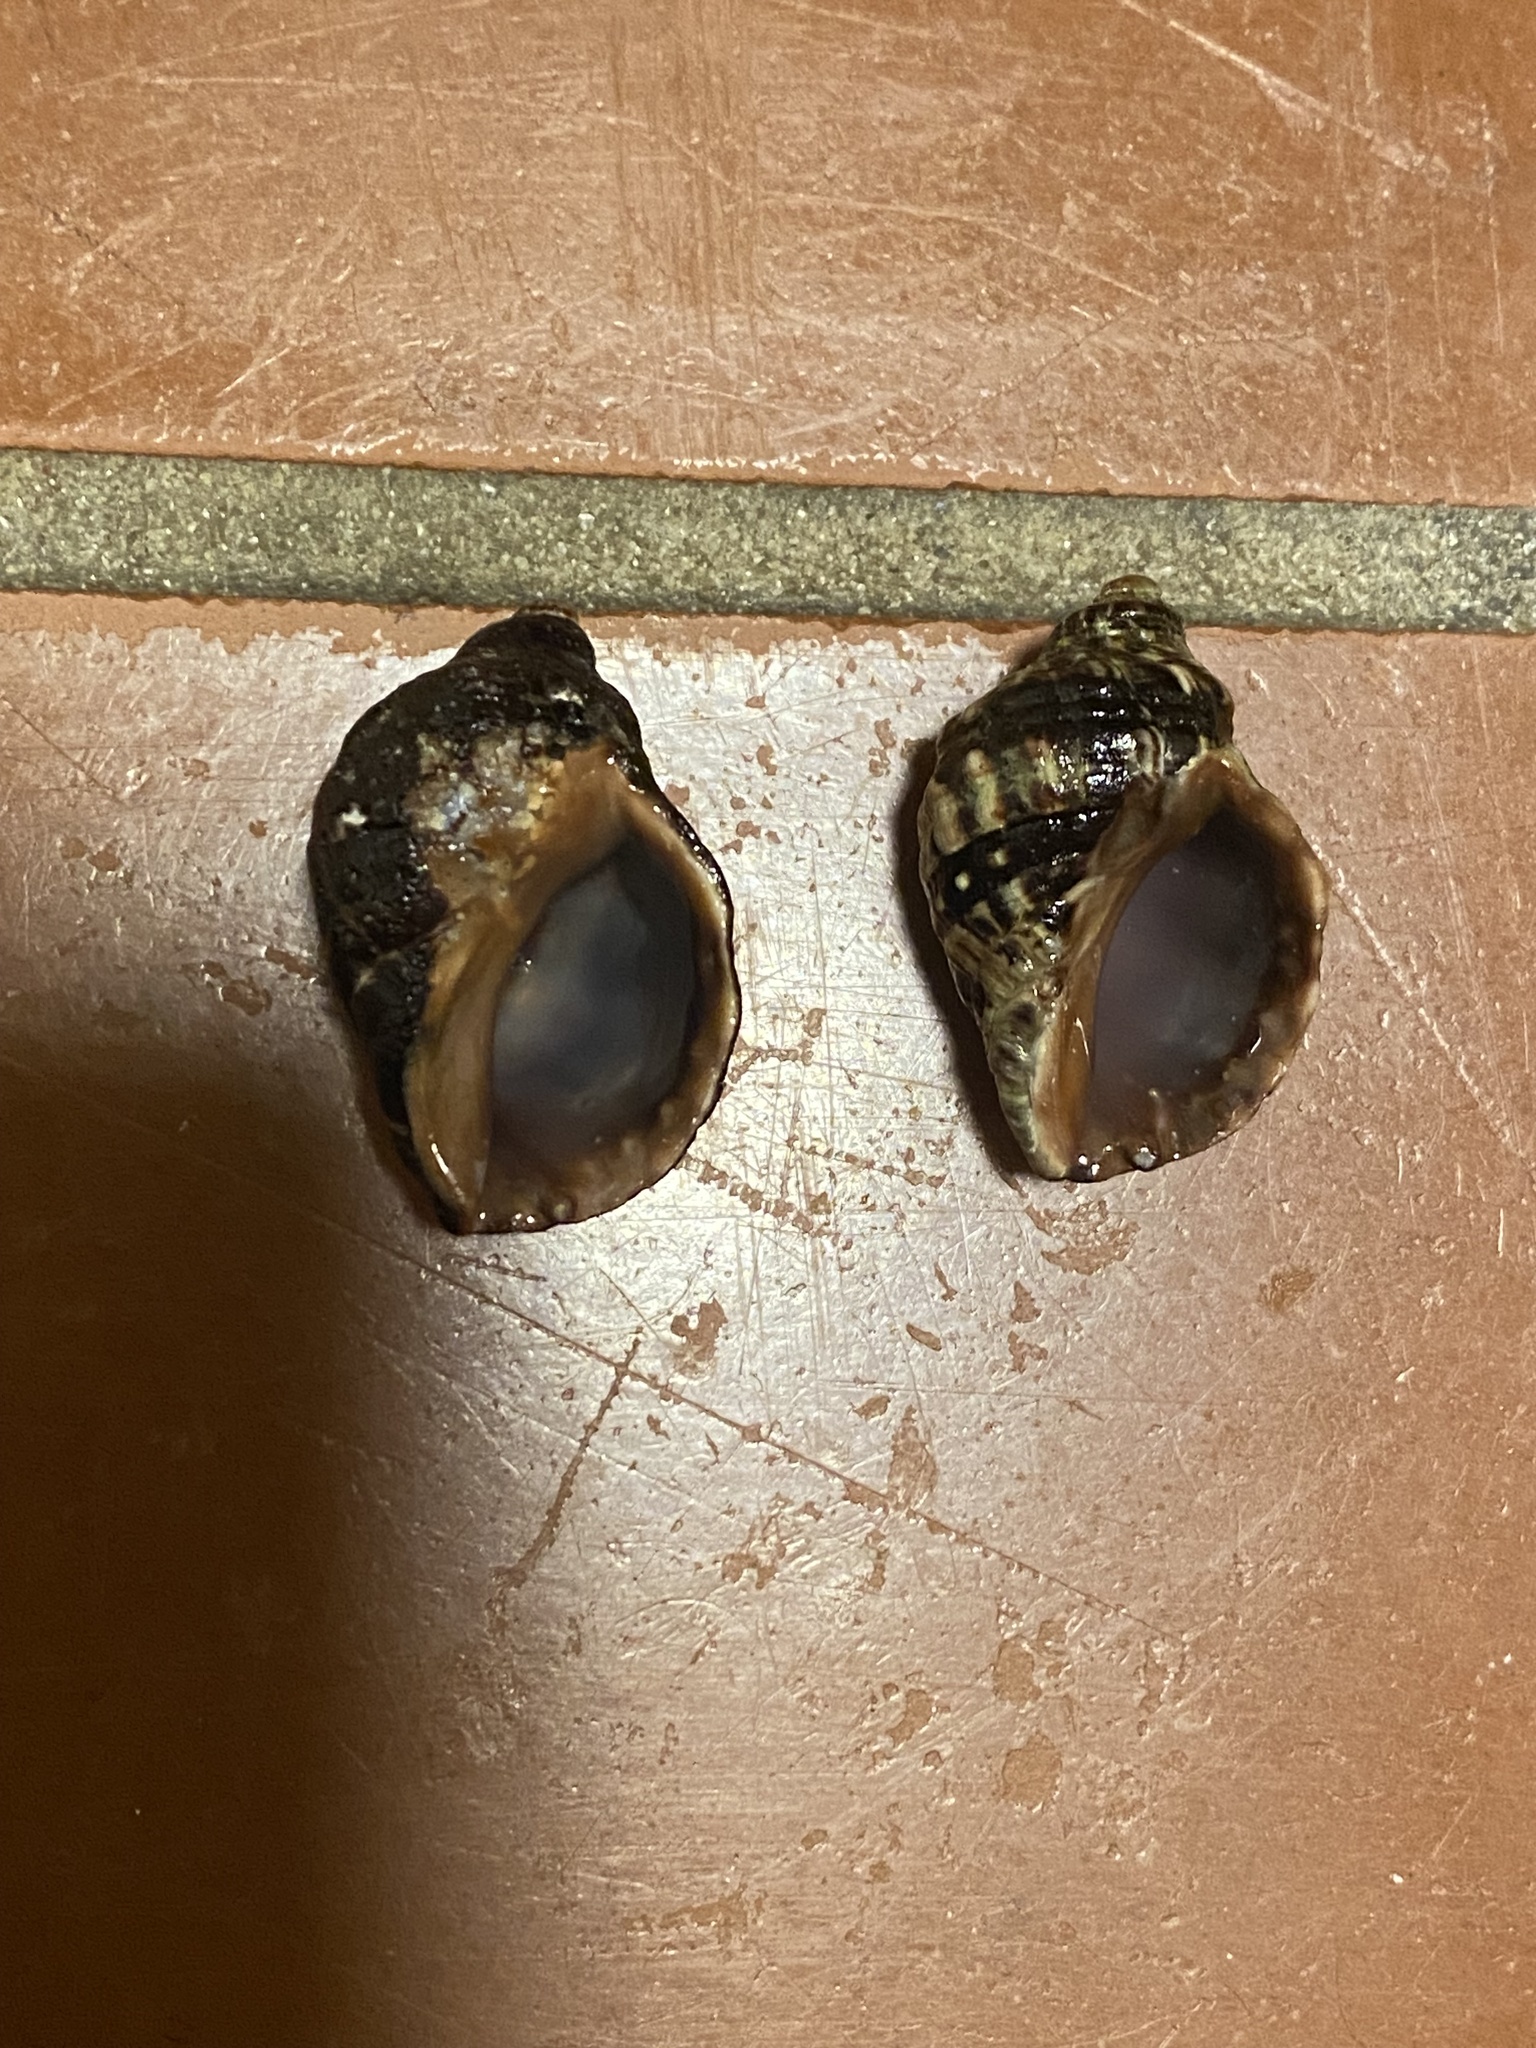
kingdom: Animalia
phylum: Mollusca
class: Gastropoda
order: Neogastropoda
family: Muricidae
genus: Mexacanthina
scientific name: Mexacanthina lugubris
